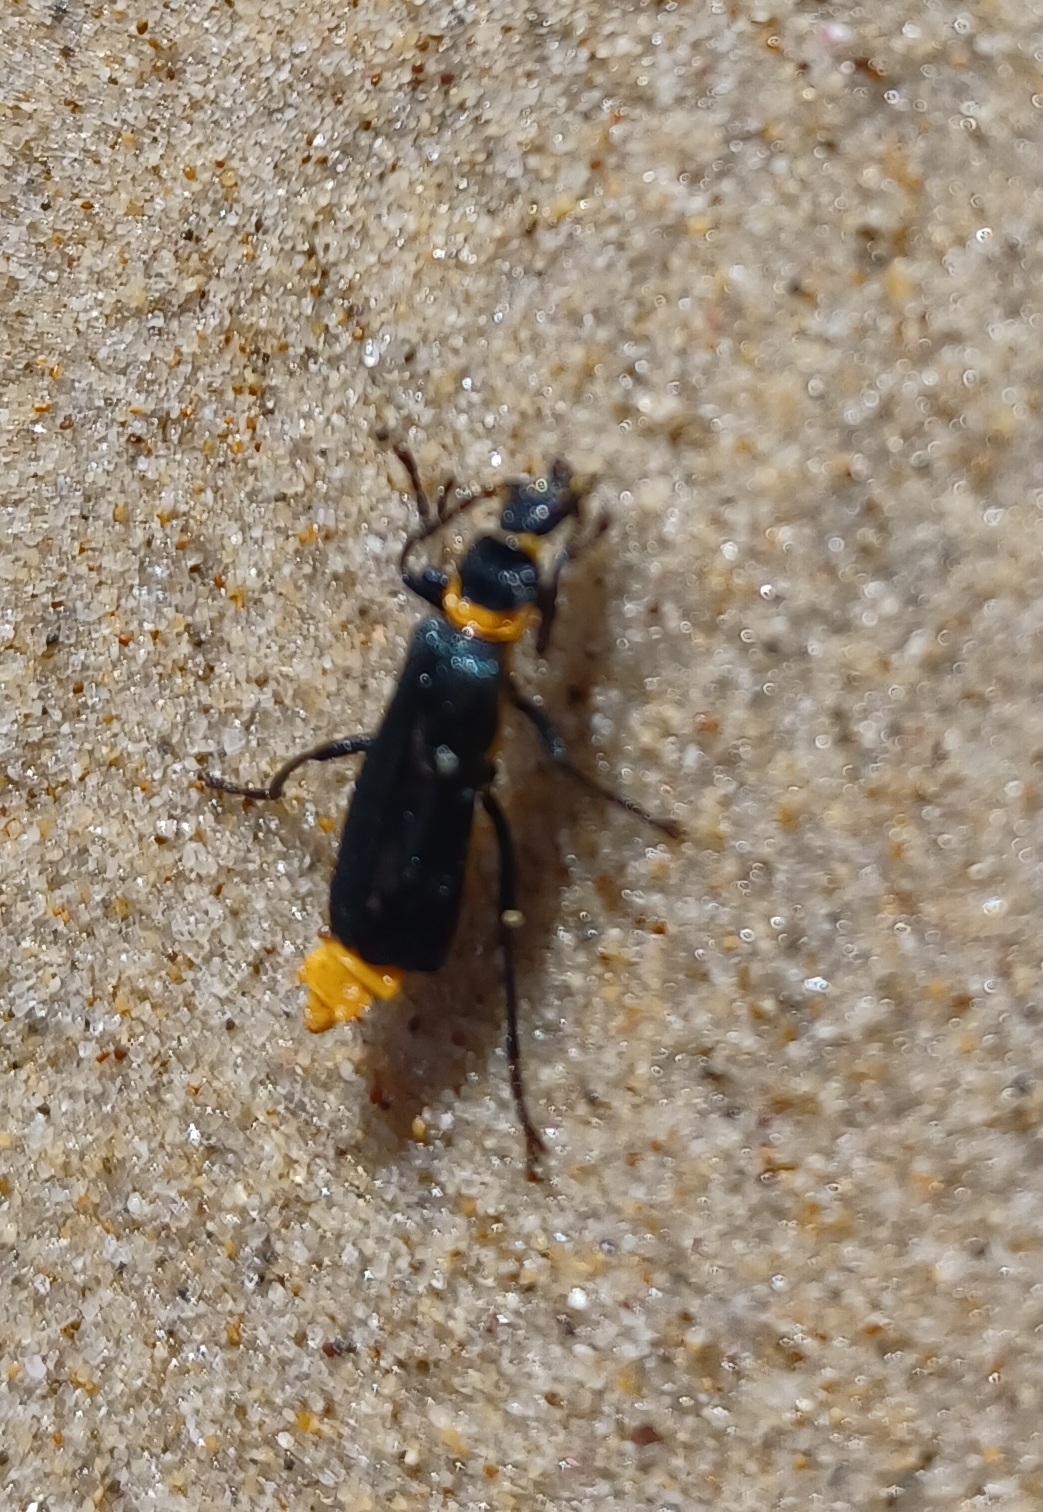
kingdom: Animalia
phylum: Arthropoda
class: Insecta
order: Coleoptera
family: Cantharidae
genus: Chauliognathus
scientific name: Chauliognathus
